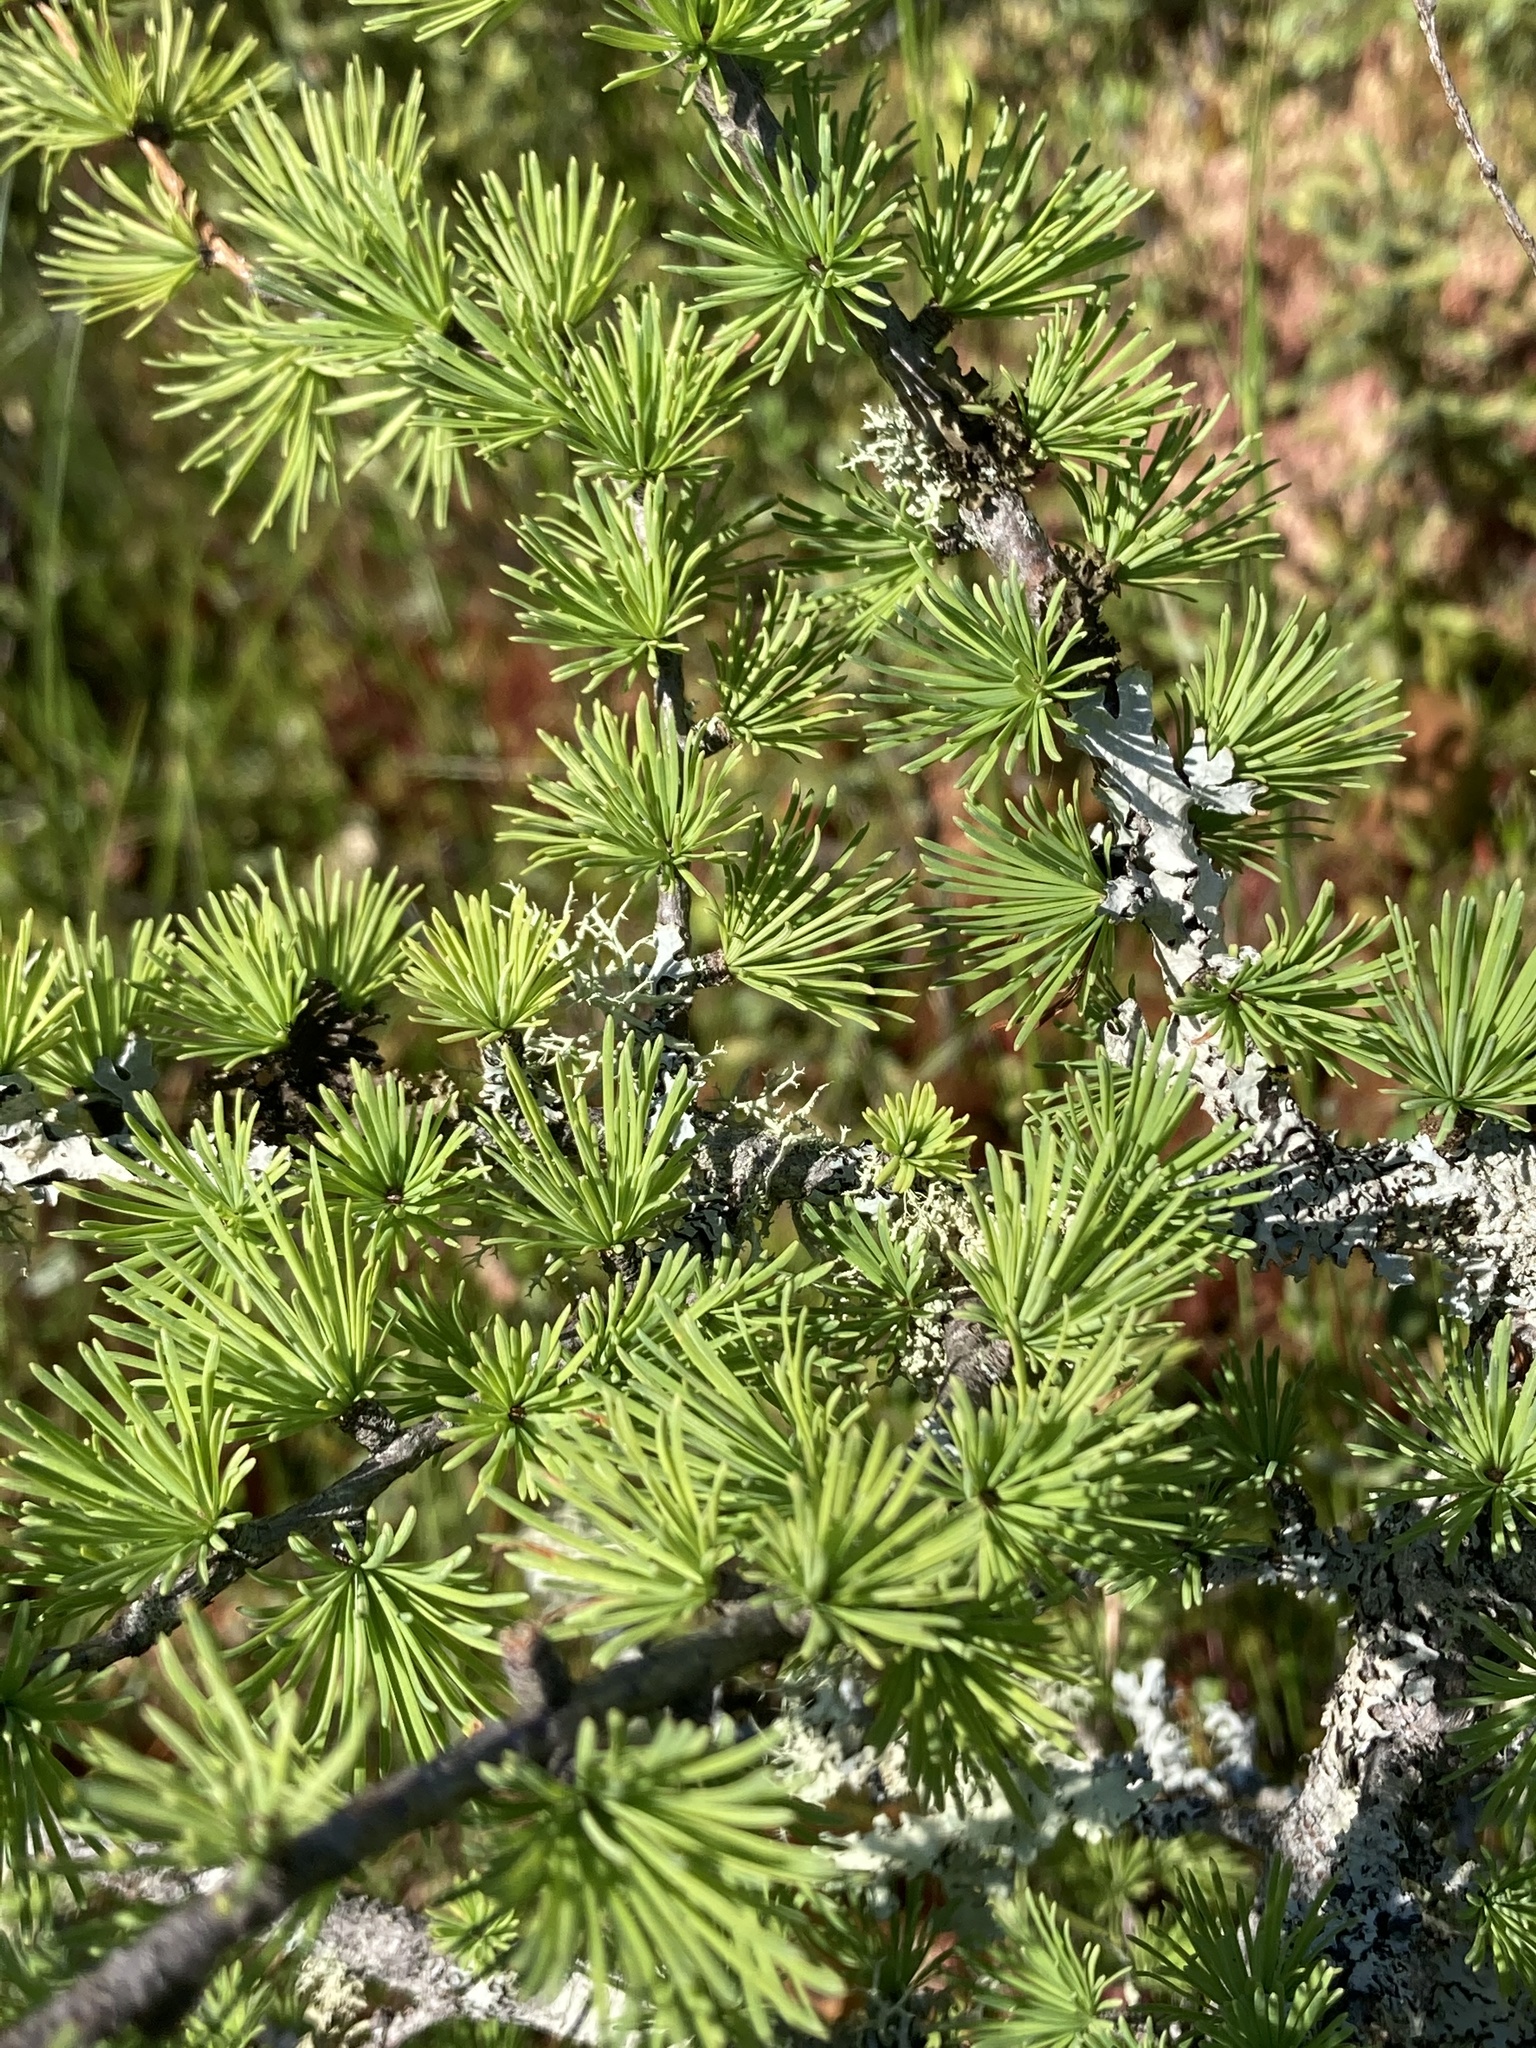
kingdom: Plantae
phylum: Tracheophyta
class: Pinopsida
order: Pinales
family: Pinaceae
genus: Larix
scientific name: Larix laricina
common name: American larch
